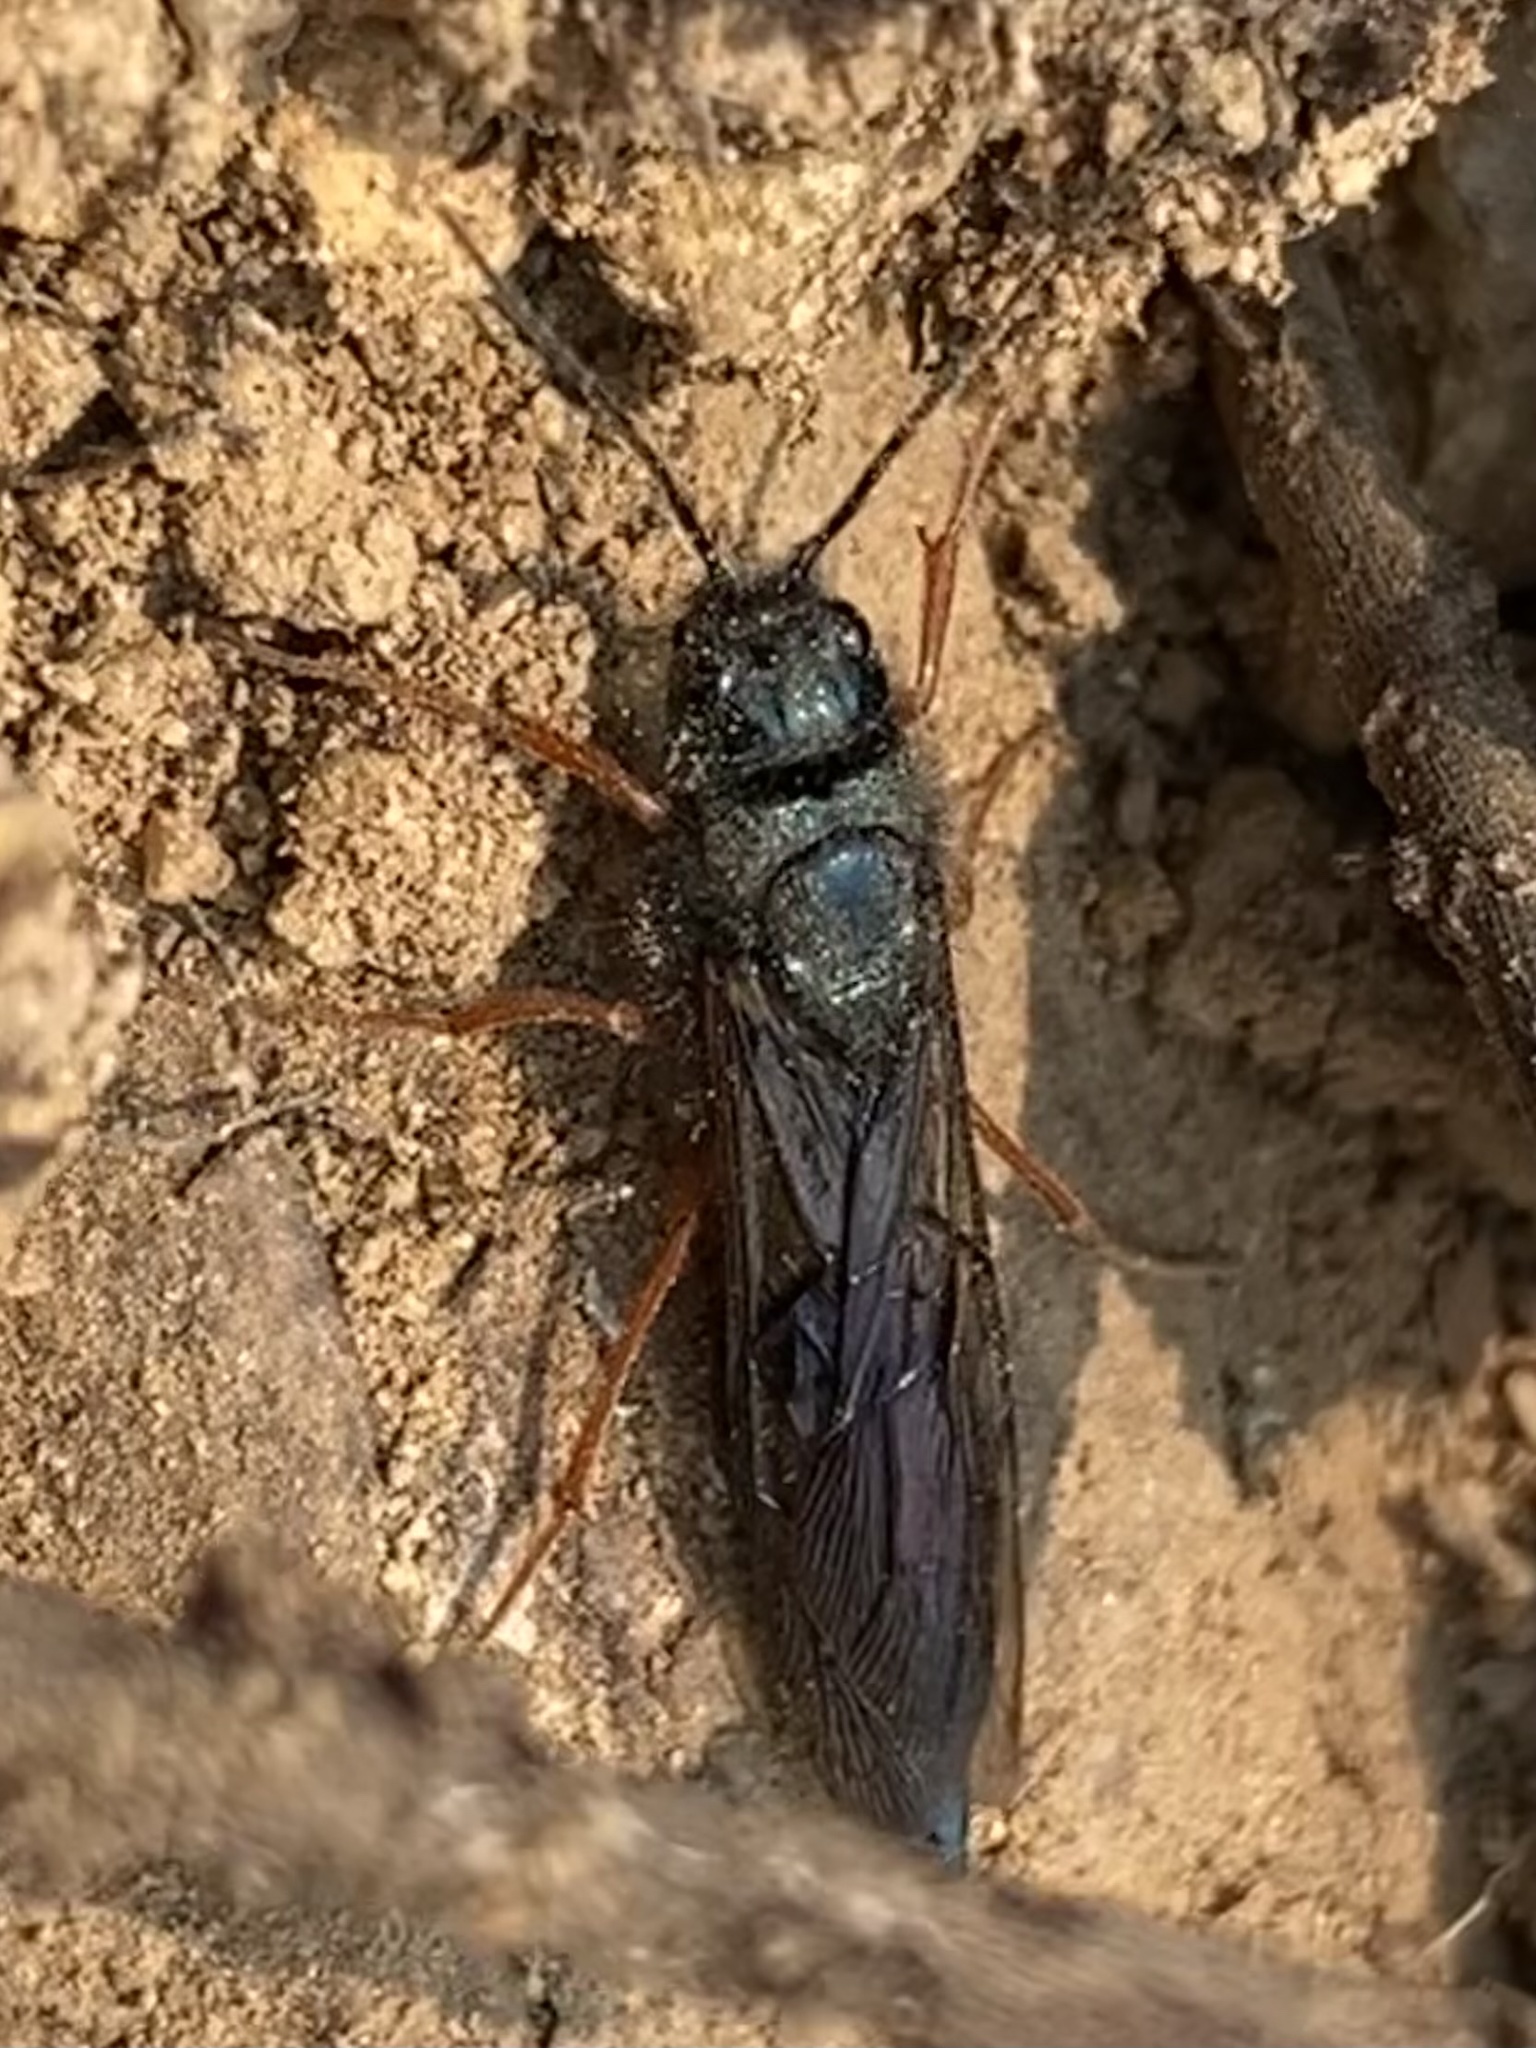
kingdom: Animalia
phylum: Arthropoda
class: Insecta
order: Hymenoptera
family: Siricidae
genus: Sirex
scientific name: Sirex
